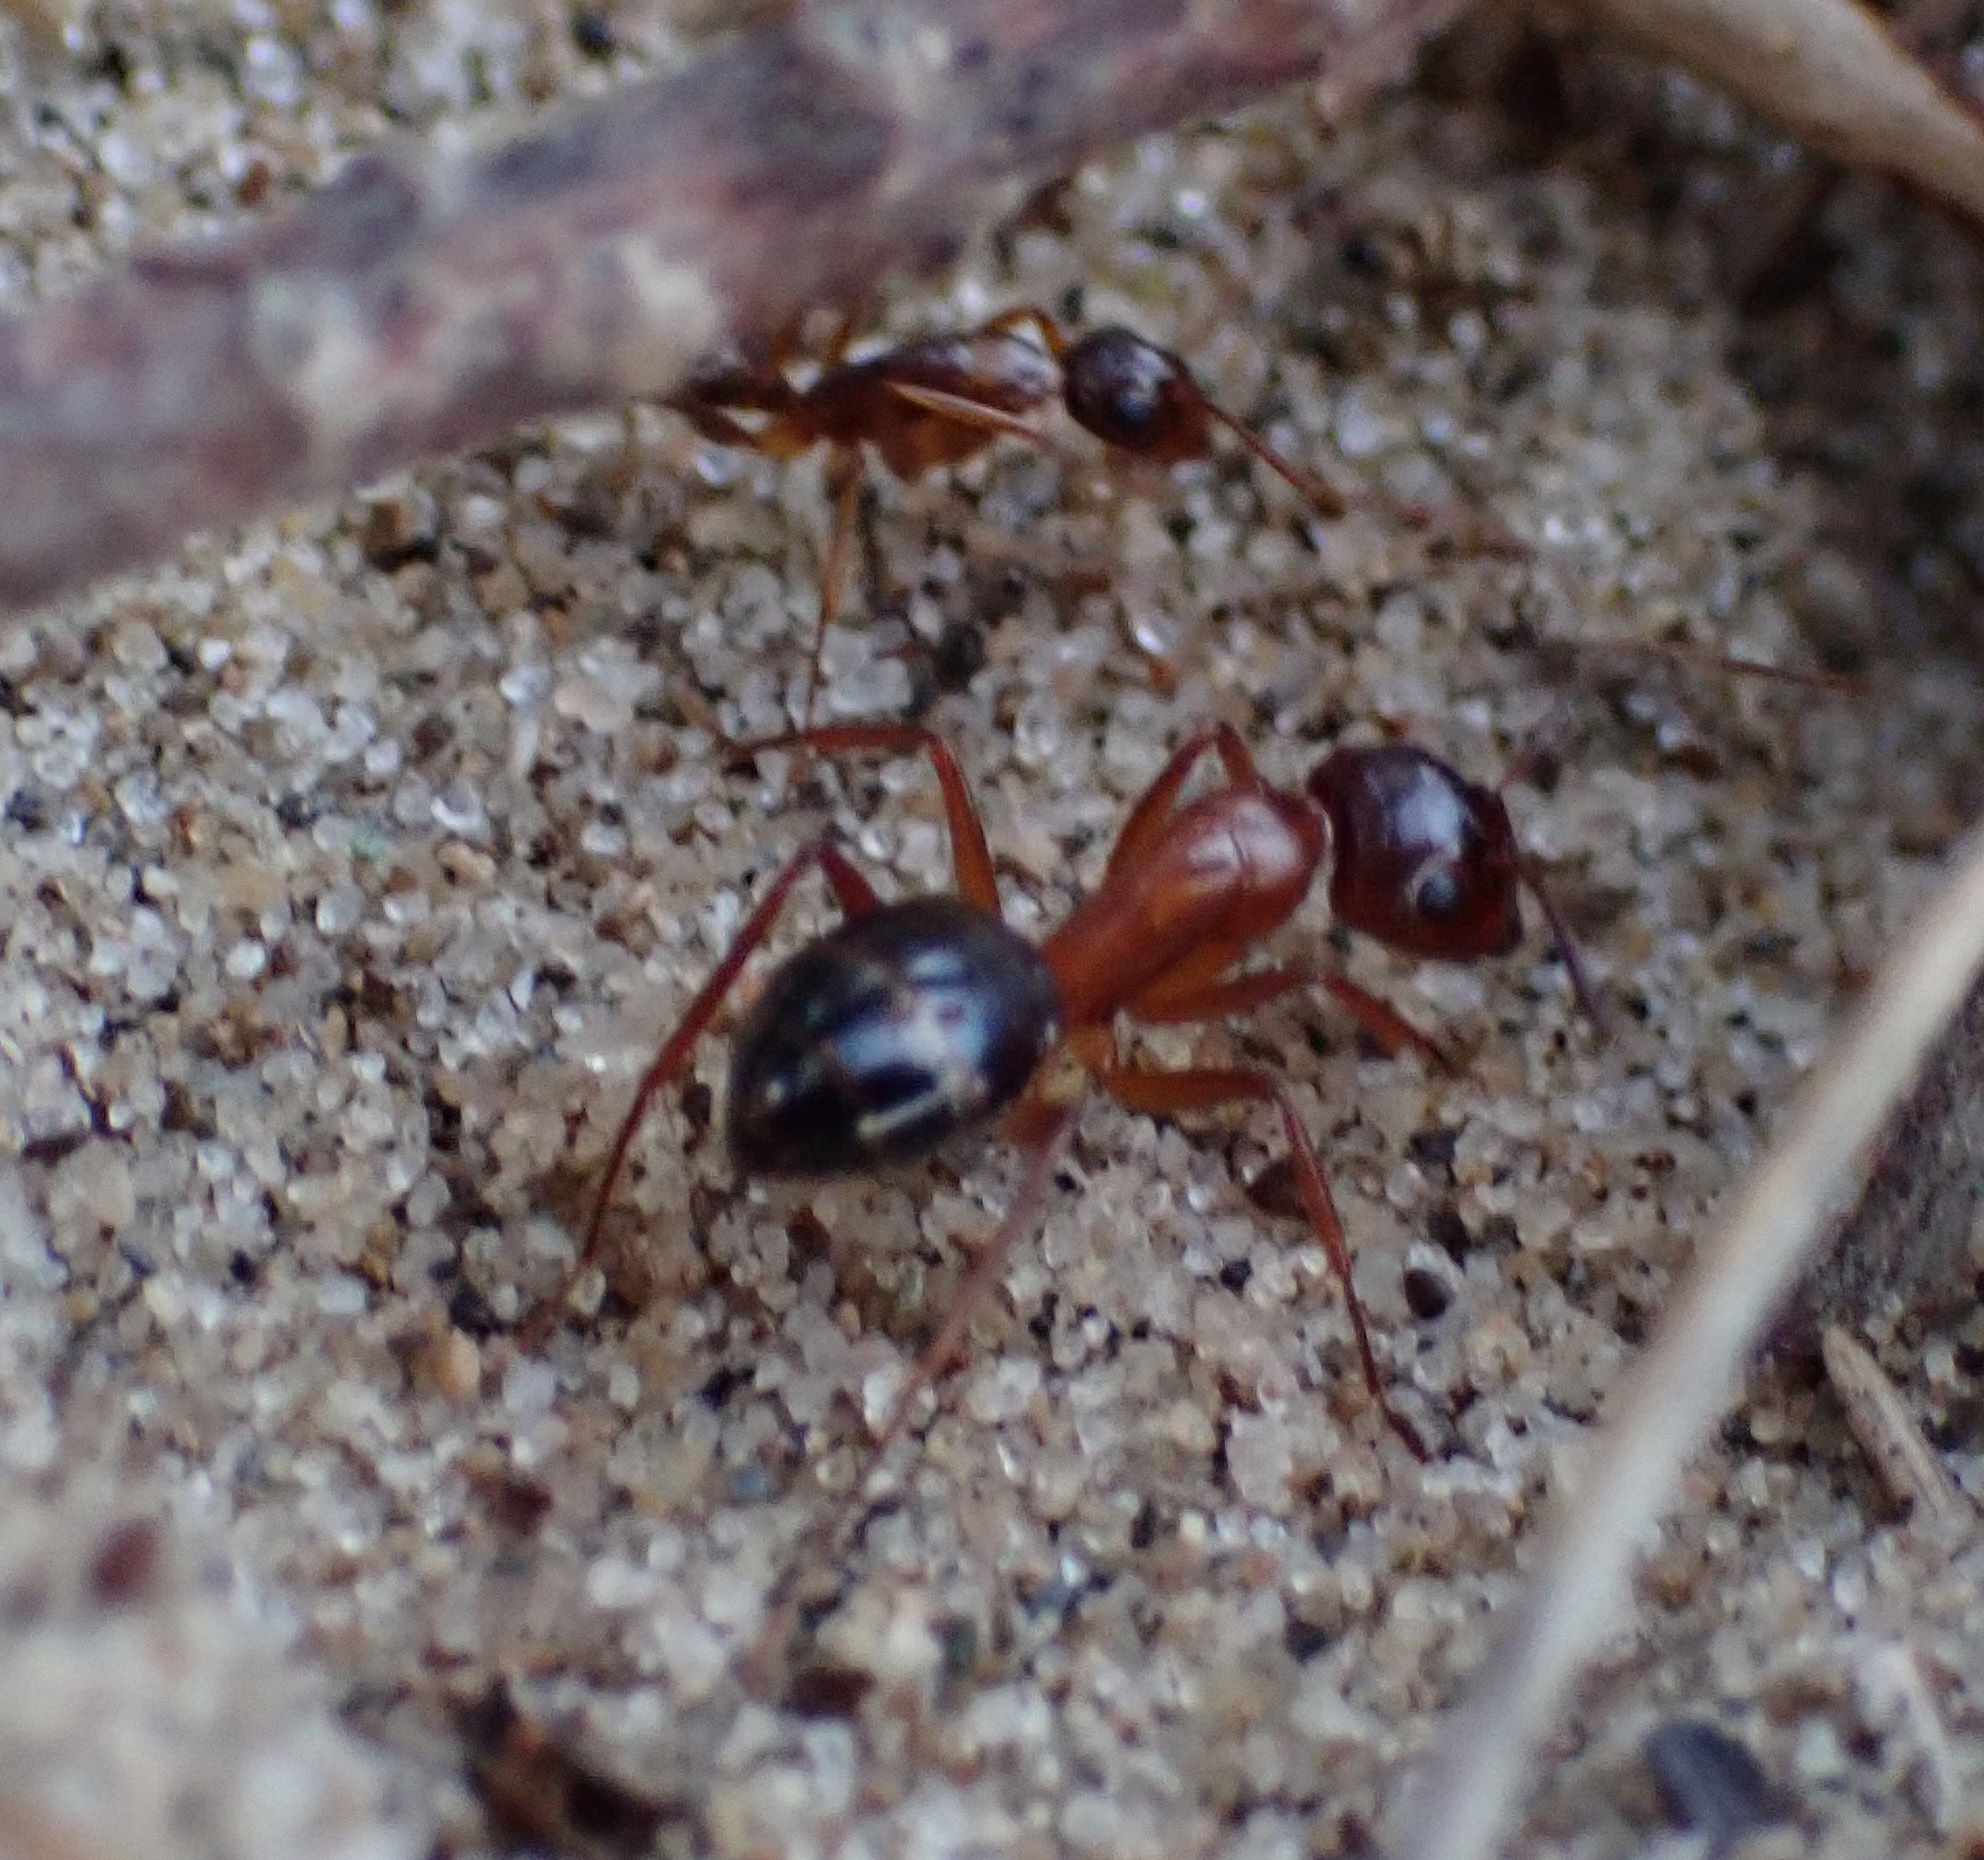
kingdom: Animalia
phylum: Arthropoda
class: Insecta
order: Hymenoptera
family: Formicidae
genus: Camponotus
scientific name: Camponotus nylanderi
